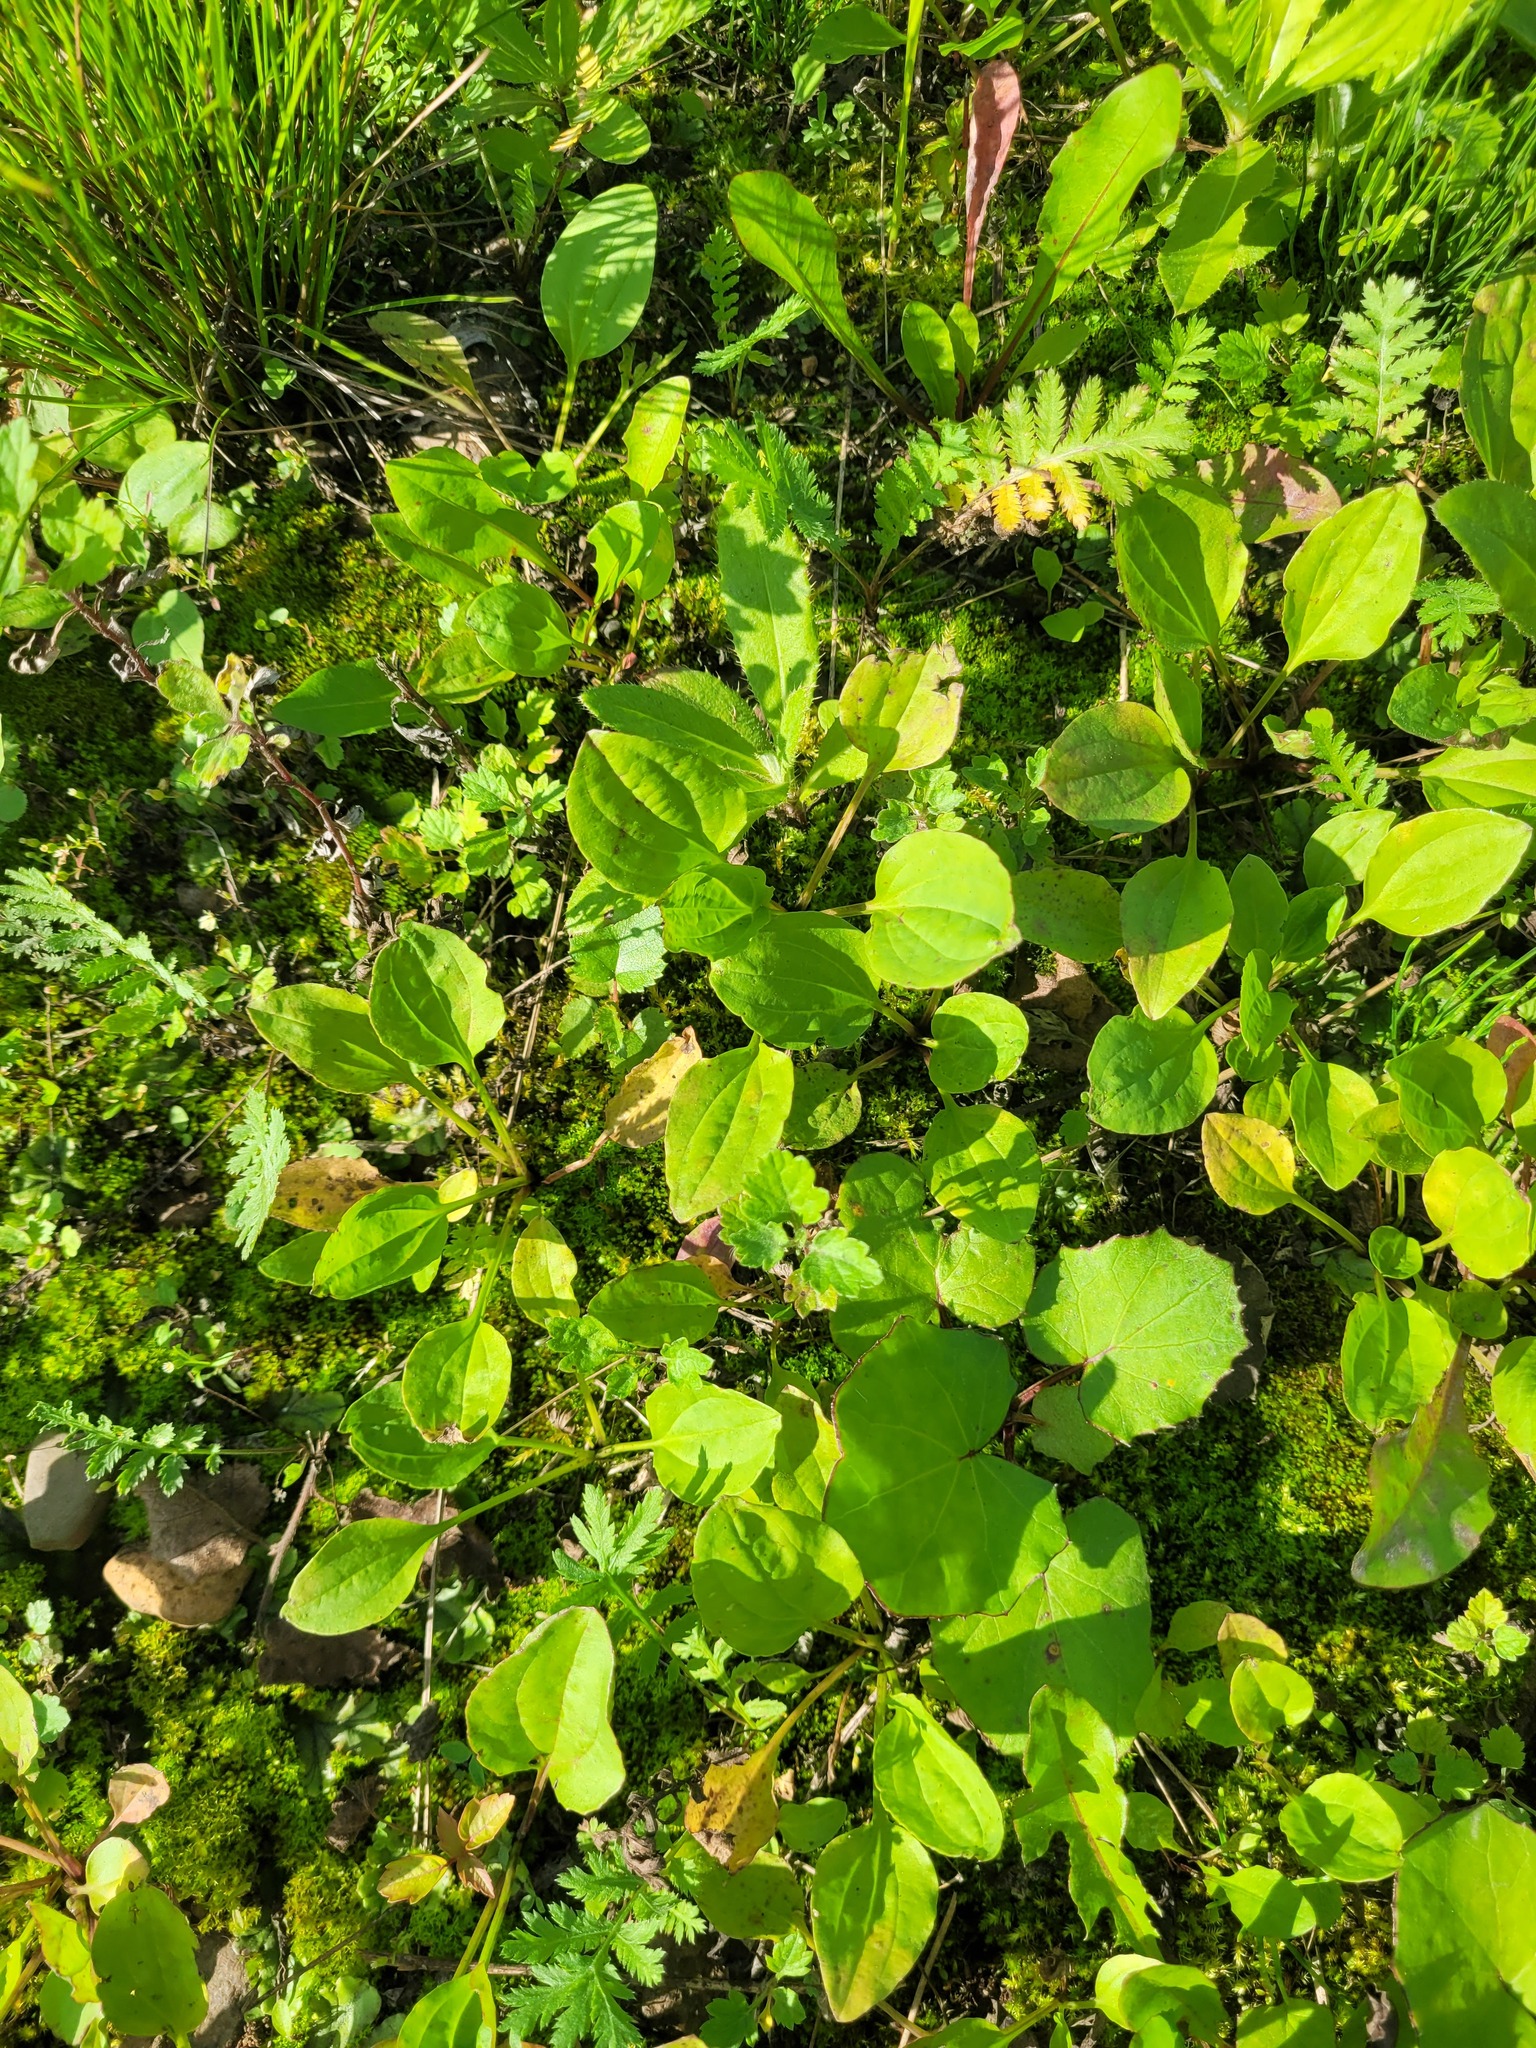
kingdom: Plantae
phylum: Tracheophyta
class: Magnoliopsida
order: Lamiales
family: Plantaginaceae
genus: Plantago
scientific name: Plantago major
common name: Common plantain
